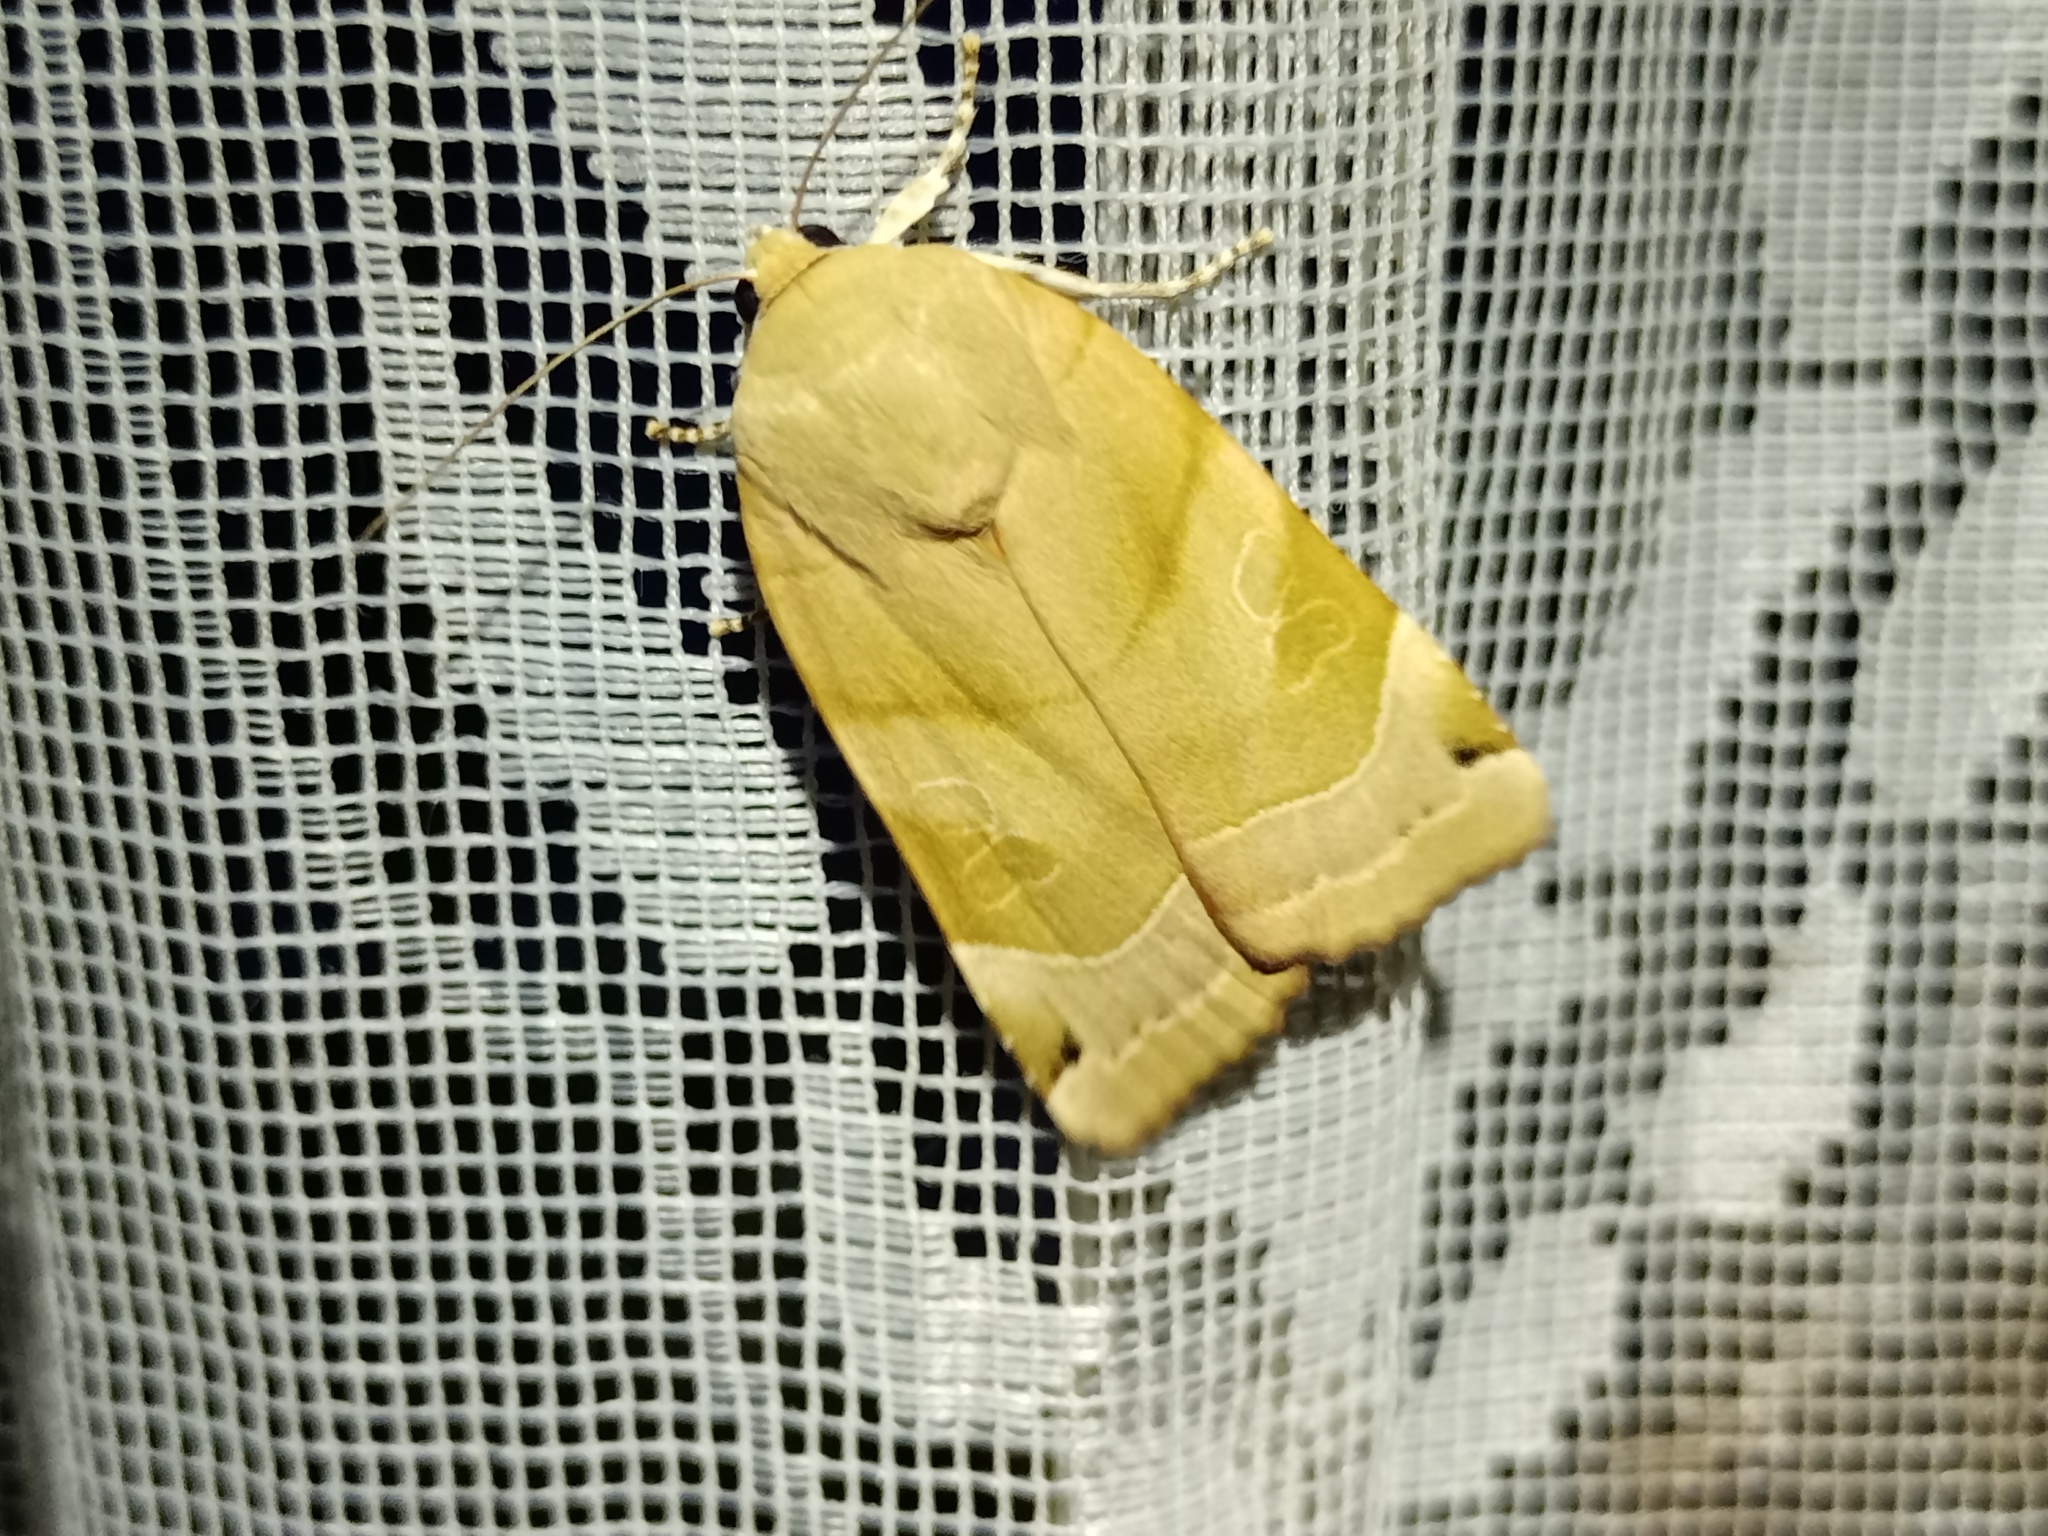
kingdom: Animalia
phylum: Arthropoda
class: Insecta
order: Lepidoptera
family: Noctuidae
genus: Noctua
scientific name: Noctua fimbriata
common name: Broad-bordered yellow underwing
